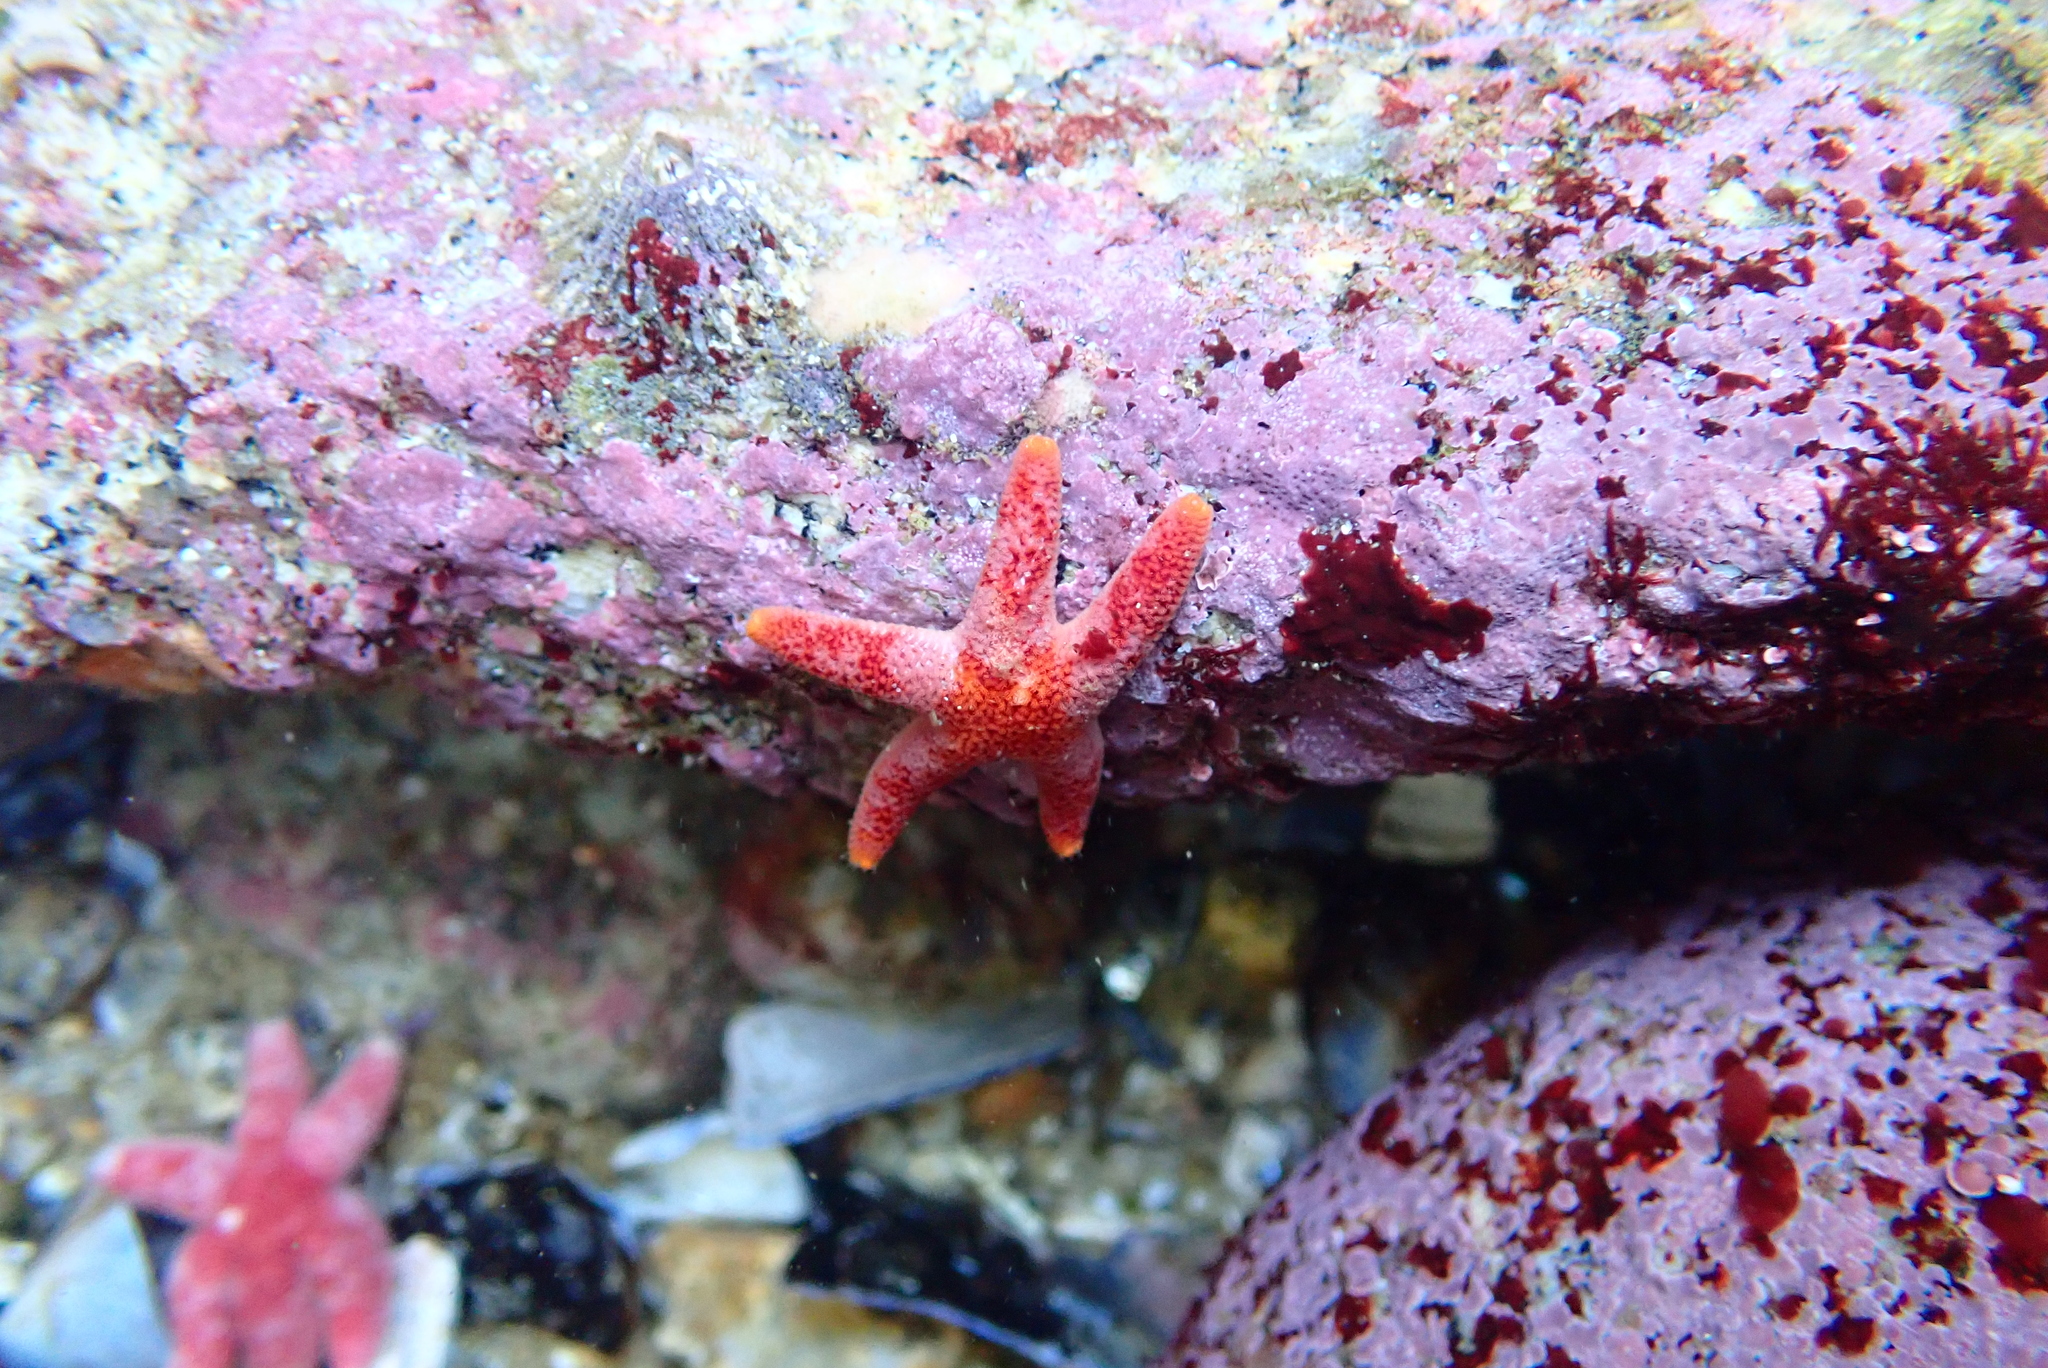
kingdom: Animalia
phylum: Echinodermata
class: Asteroidea
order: Spinulosida
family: Echinasteridae
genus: Henricia
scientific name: Henricia pumila
